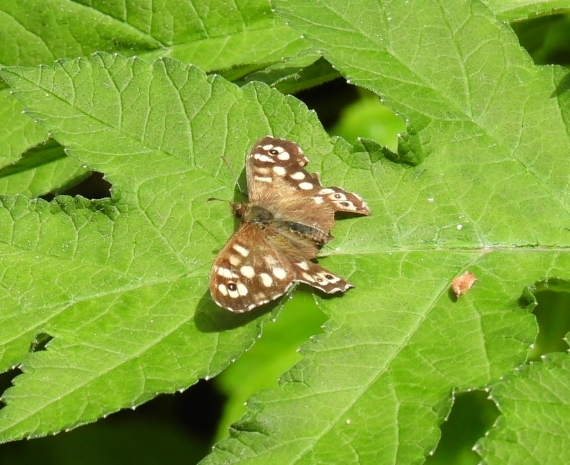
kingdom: Animalia
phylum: Arthropoda
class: Insecta
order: Lepidoptera
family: Nymphalidae
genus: Pararge
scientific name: Pararge aegeria
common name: Speckled wood
